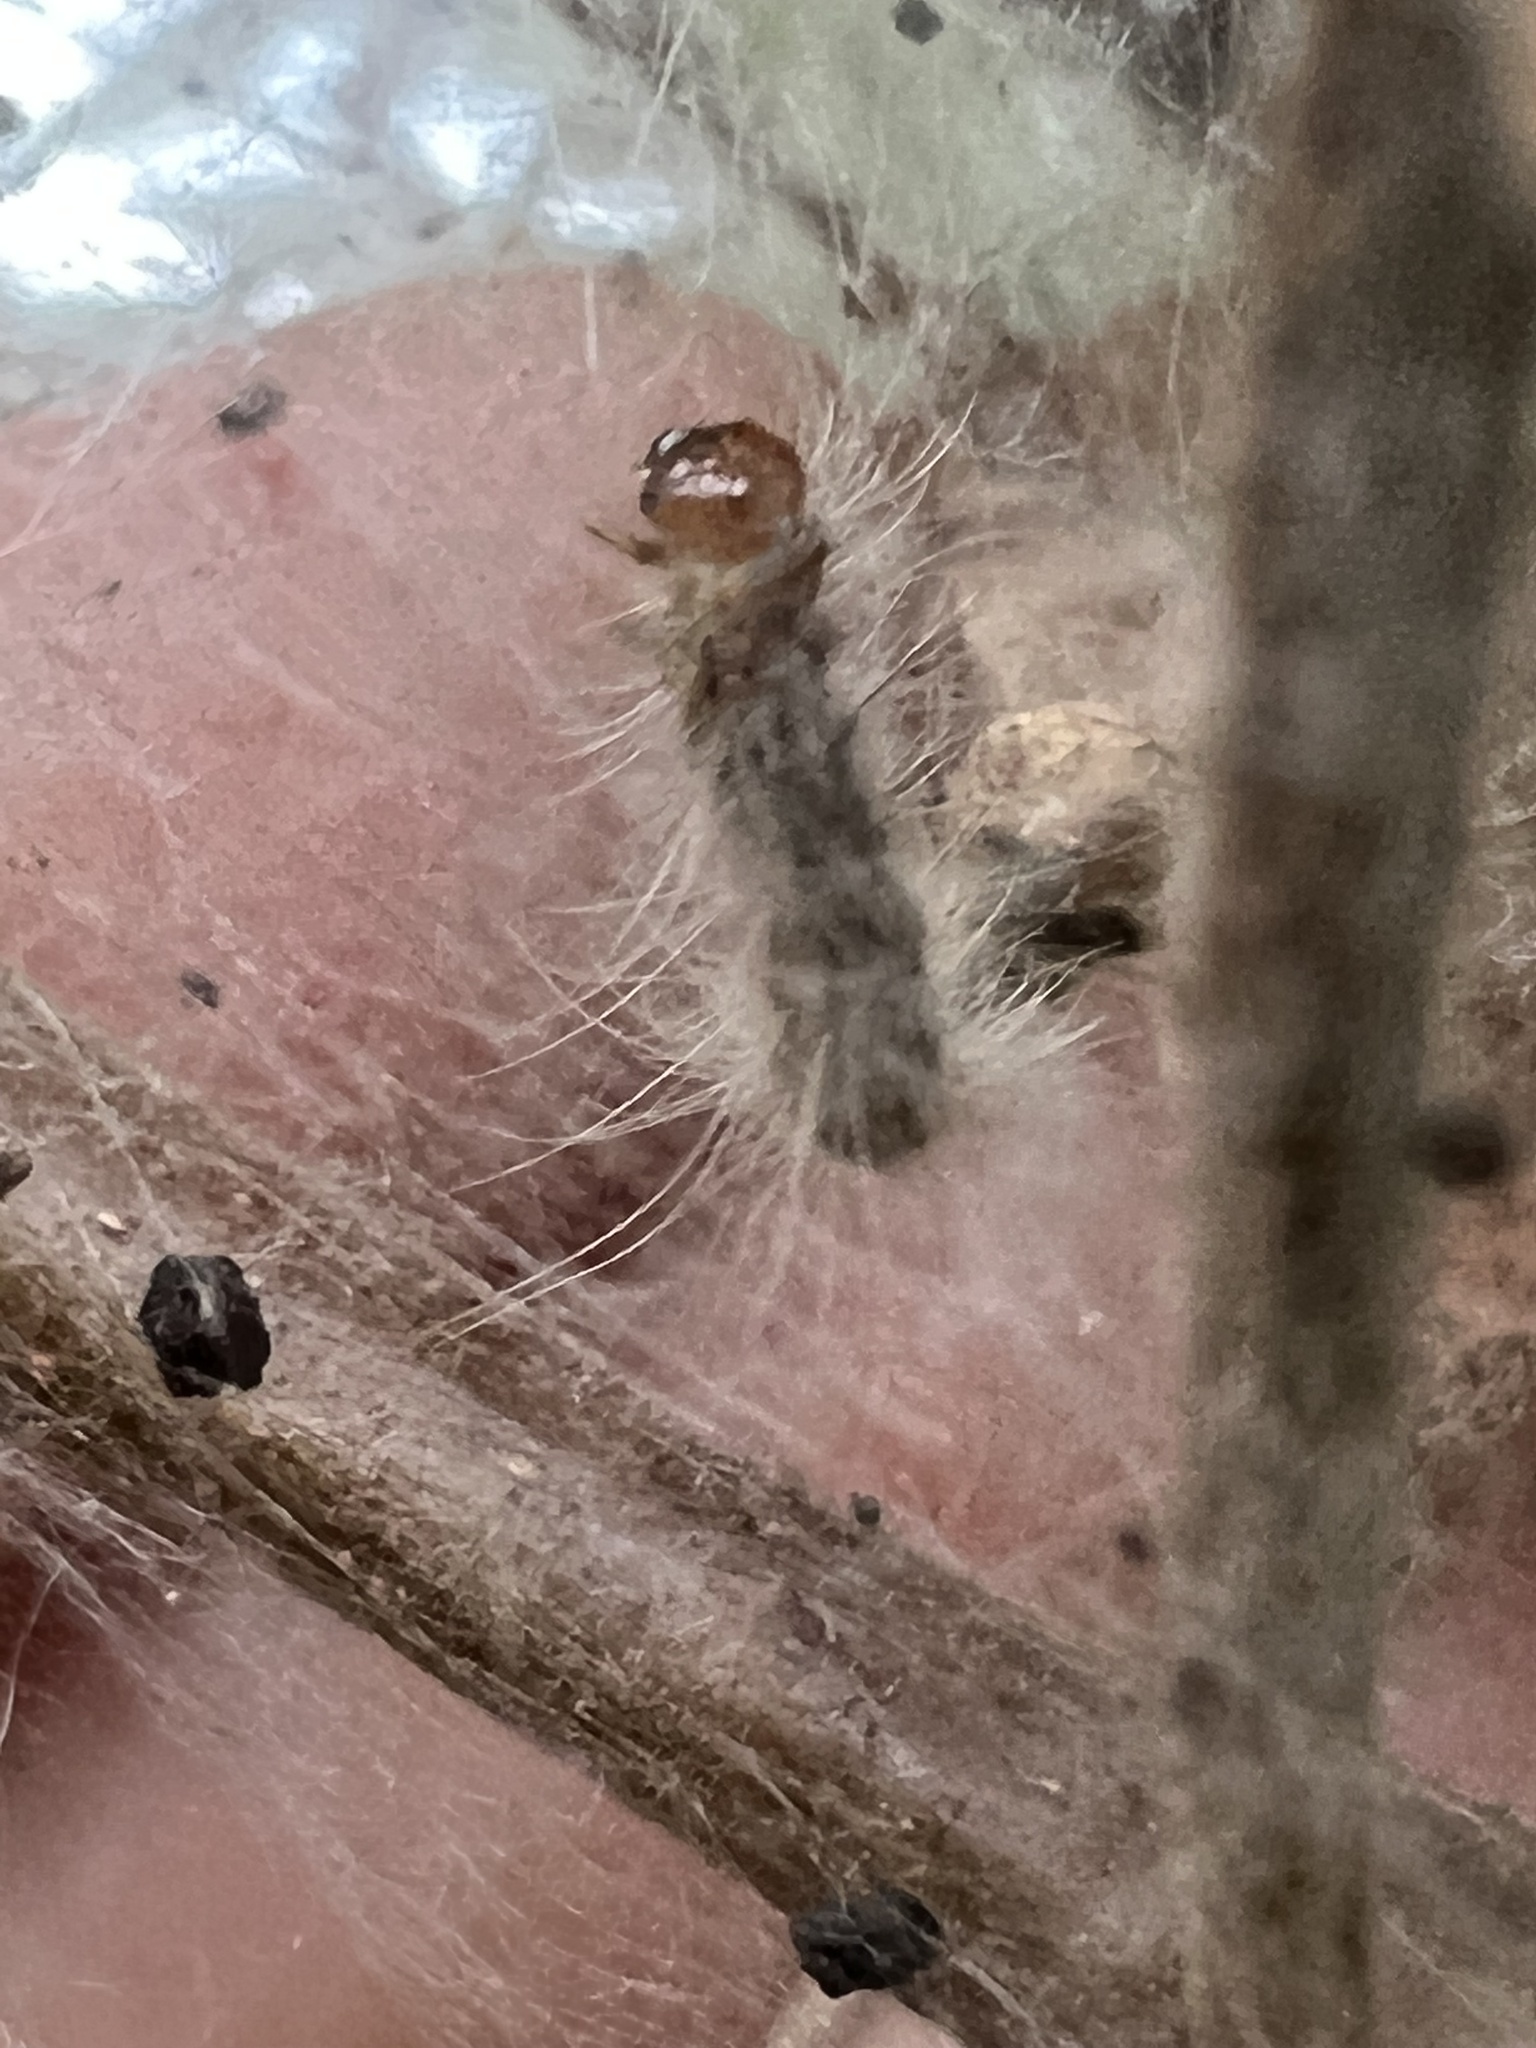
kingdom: Animalia
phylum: Arthropoda
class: Insecta
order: Lepidoptera
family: Erebidae
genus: Hyphantria
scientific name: Hyphantria cunea
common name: American white moth
